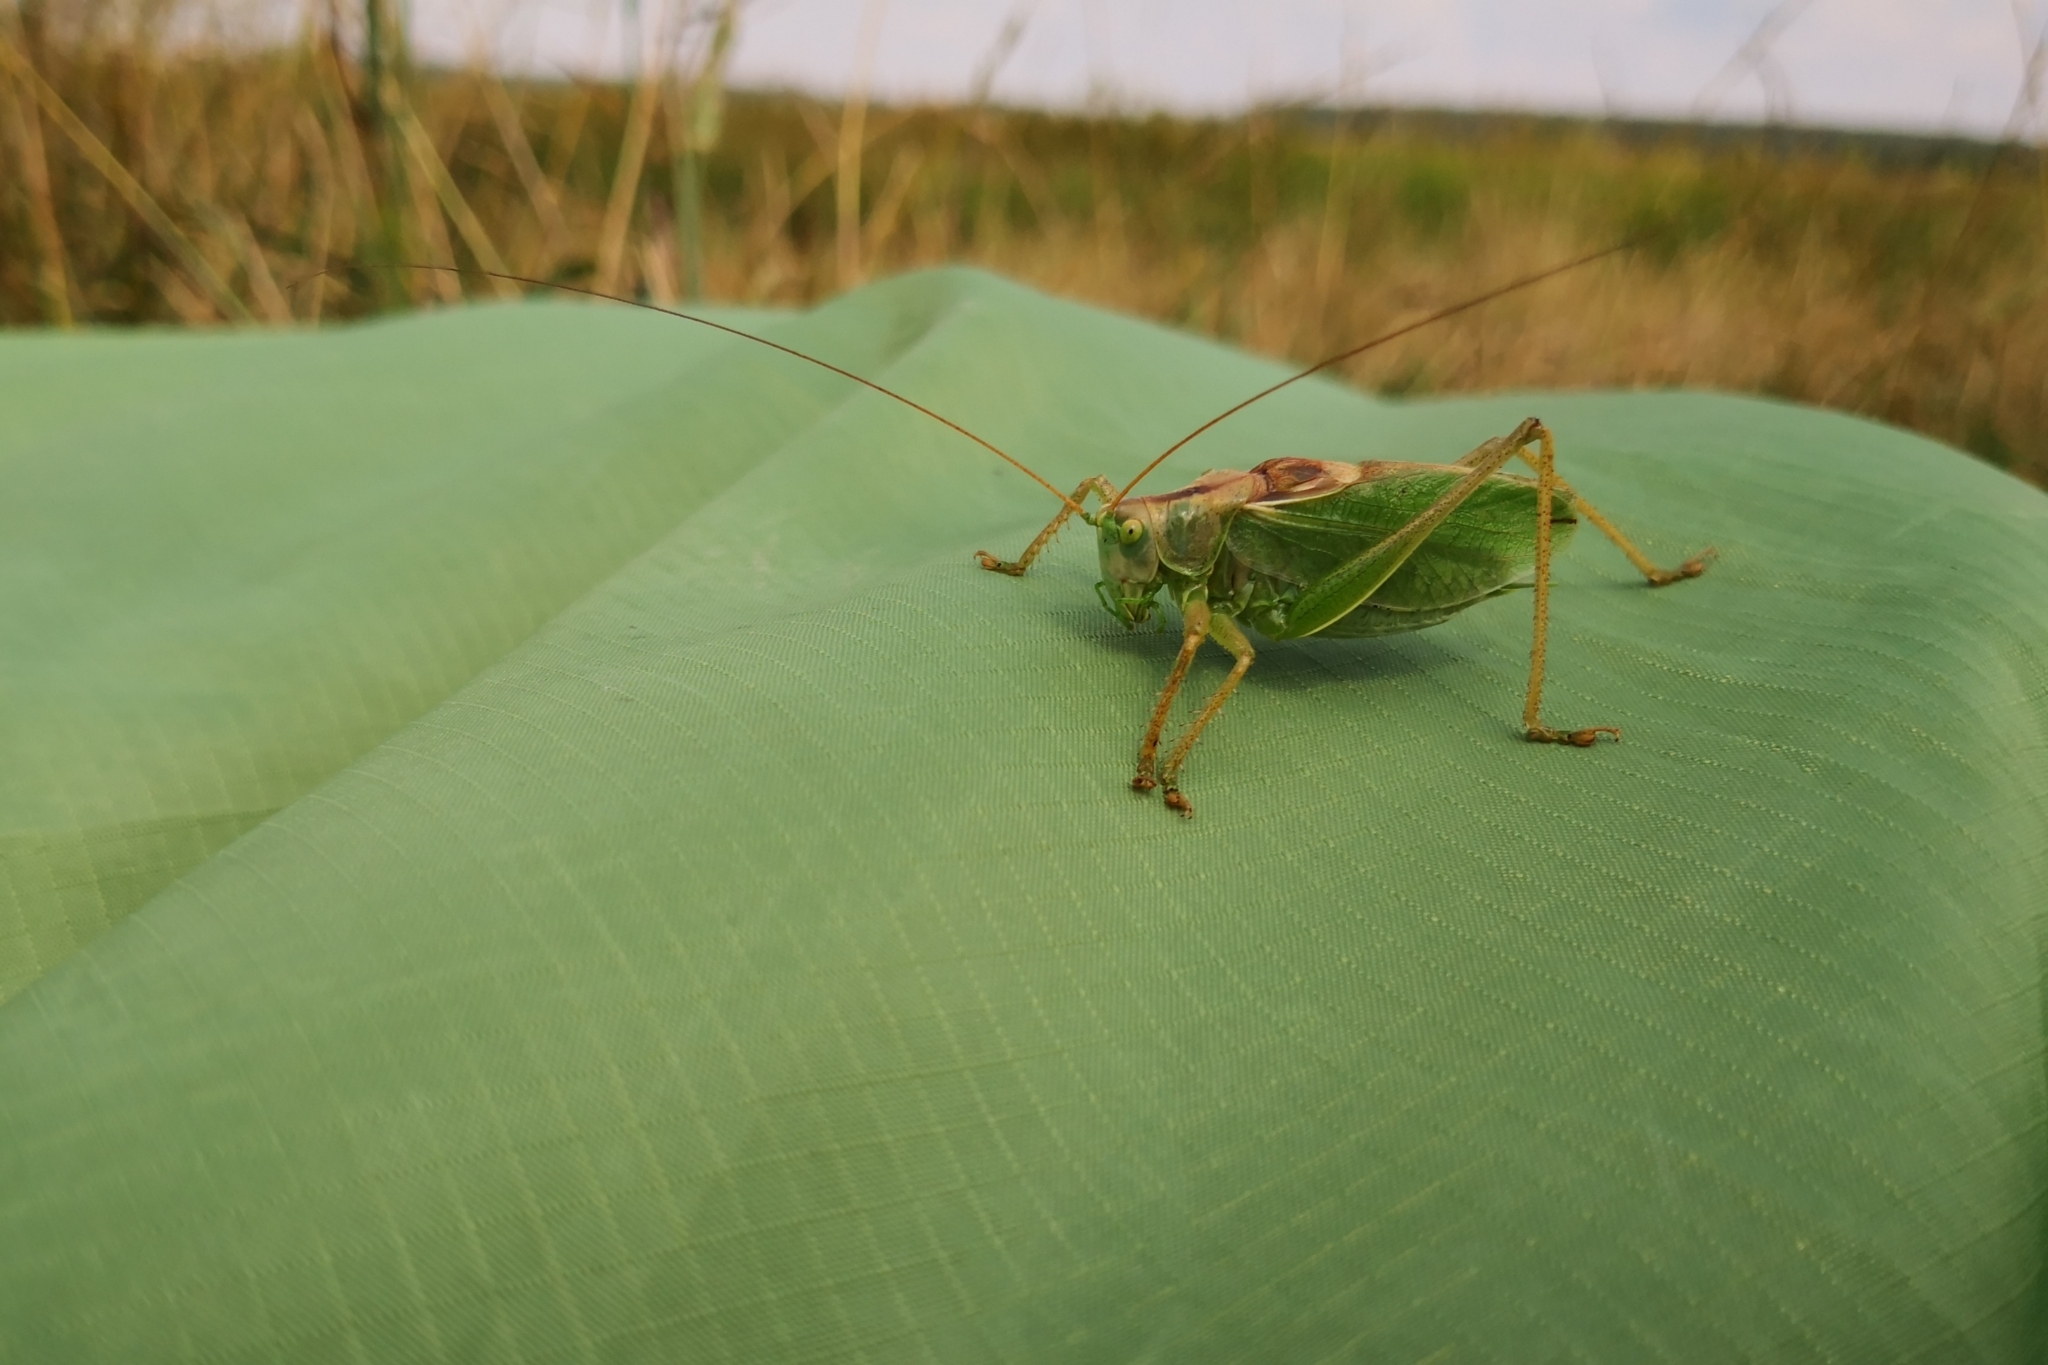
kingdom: Animalia
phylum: Arthropoda
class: Insecta
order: Orthoptera
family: Tettigoniidae
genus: Tettigonia
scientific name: Tettigonia cantans
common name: Upland green bush-cricket
